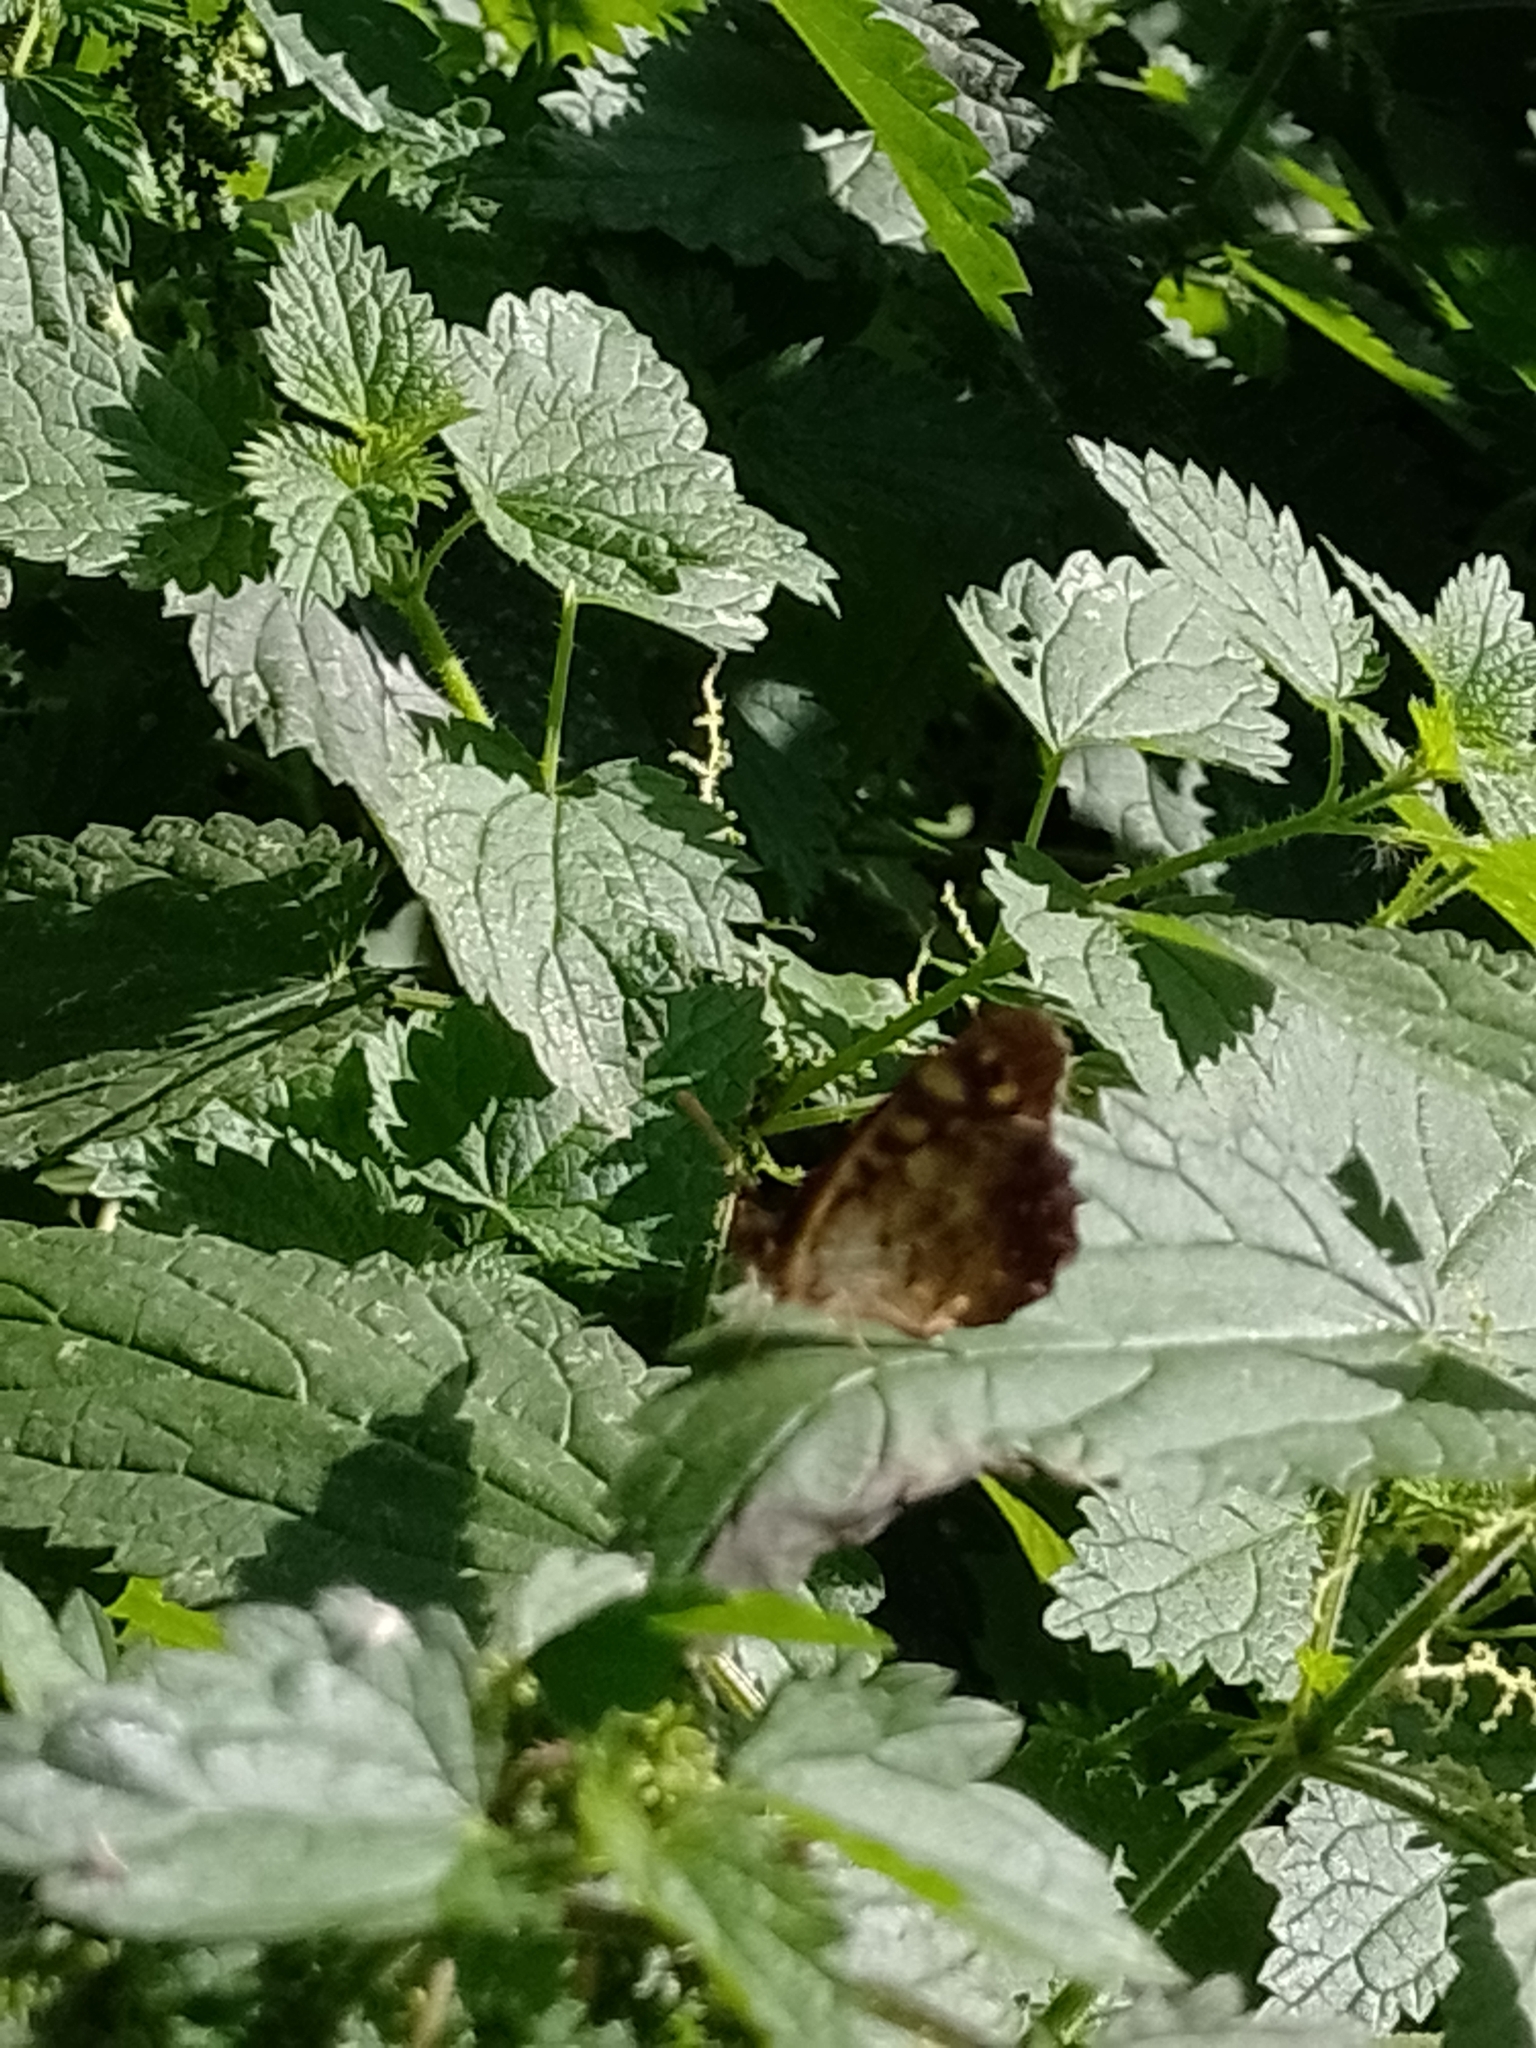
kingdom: Animalia
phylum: Arthropoda
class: Insecta
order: Lepidoptera
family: Nymphalidae
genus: Pararge
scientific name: Pararge aegeria
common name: Speckled wood
